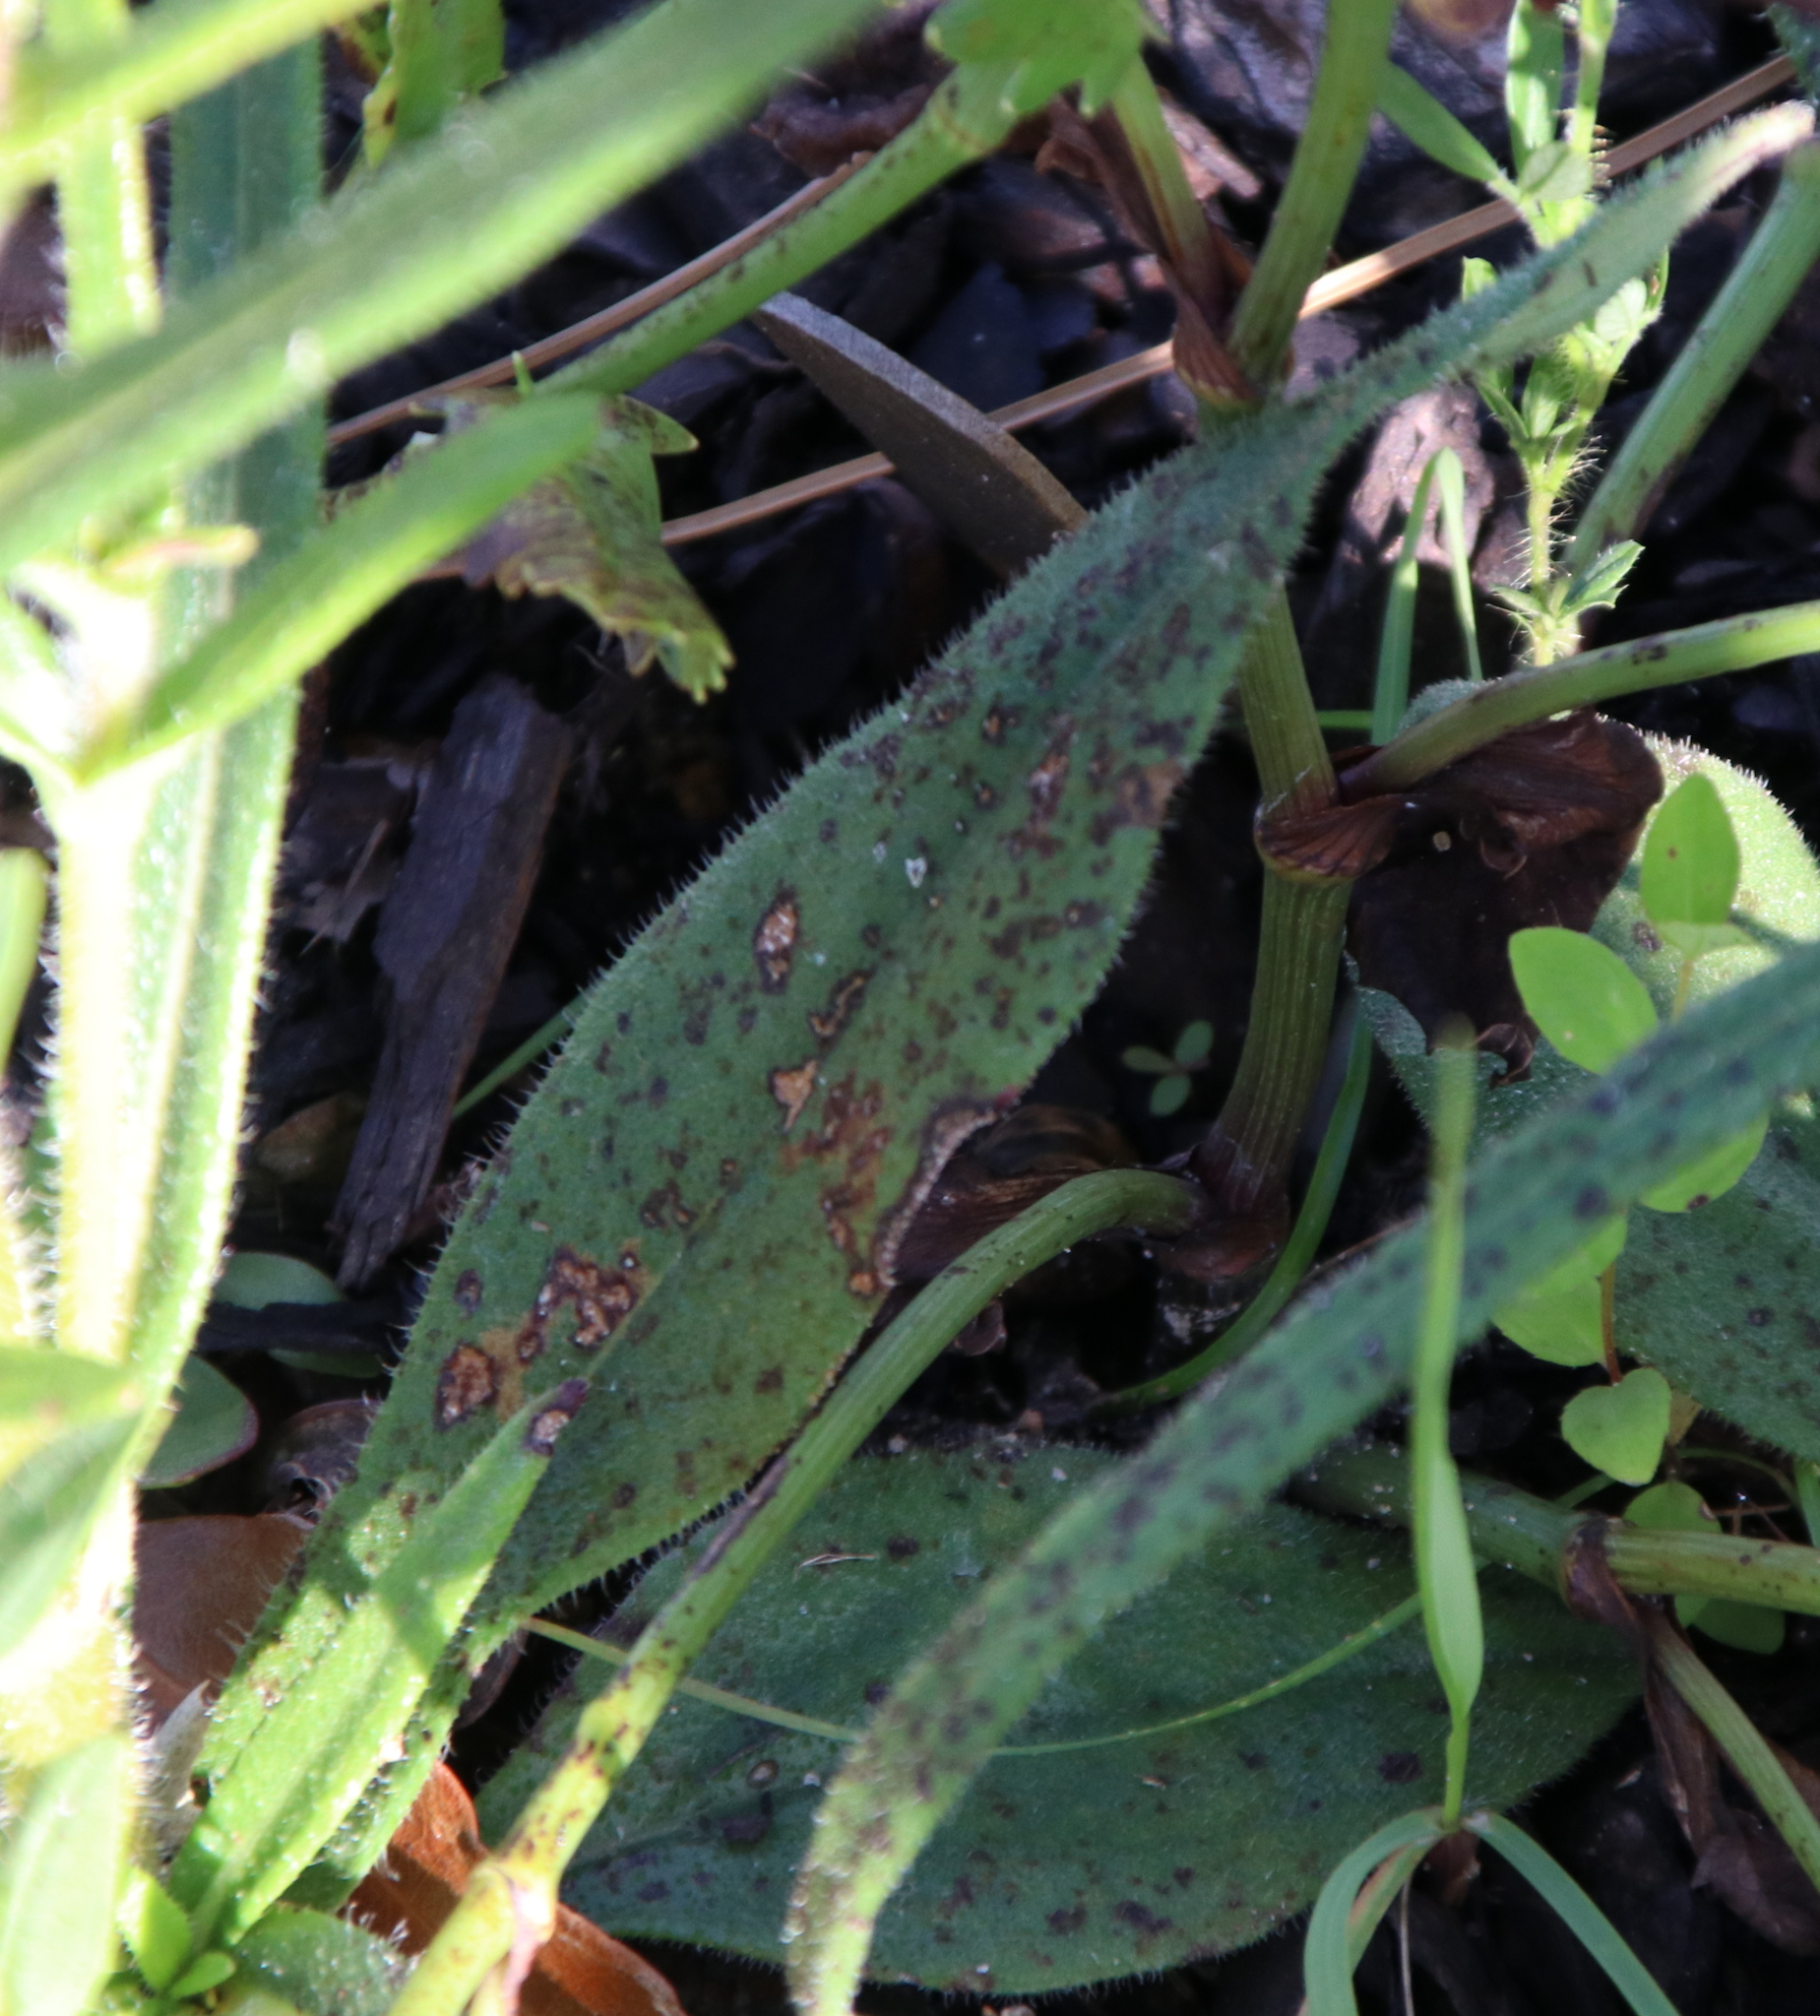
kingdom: Plantae
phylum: Tracheophyta
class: Magnoliopsida
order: Asterales
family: Asteraceae
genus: Helianthus
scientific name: Helianthus angustifolius
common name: Swamp sunflower
